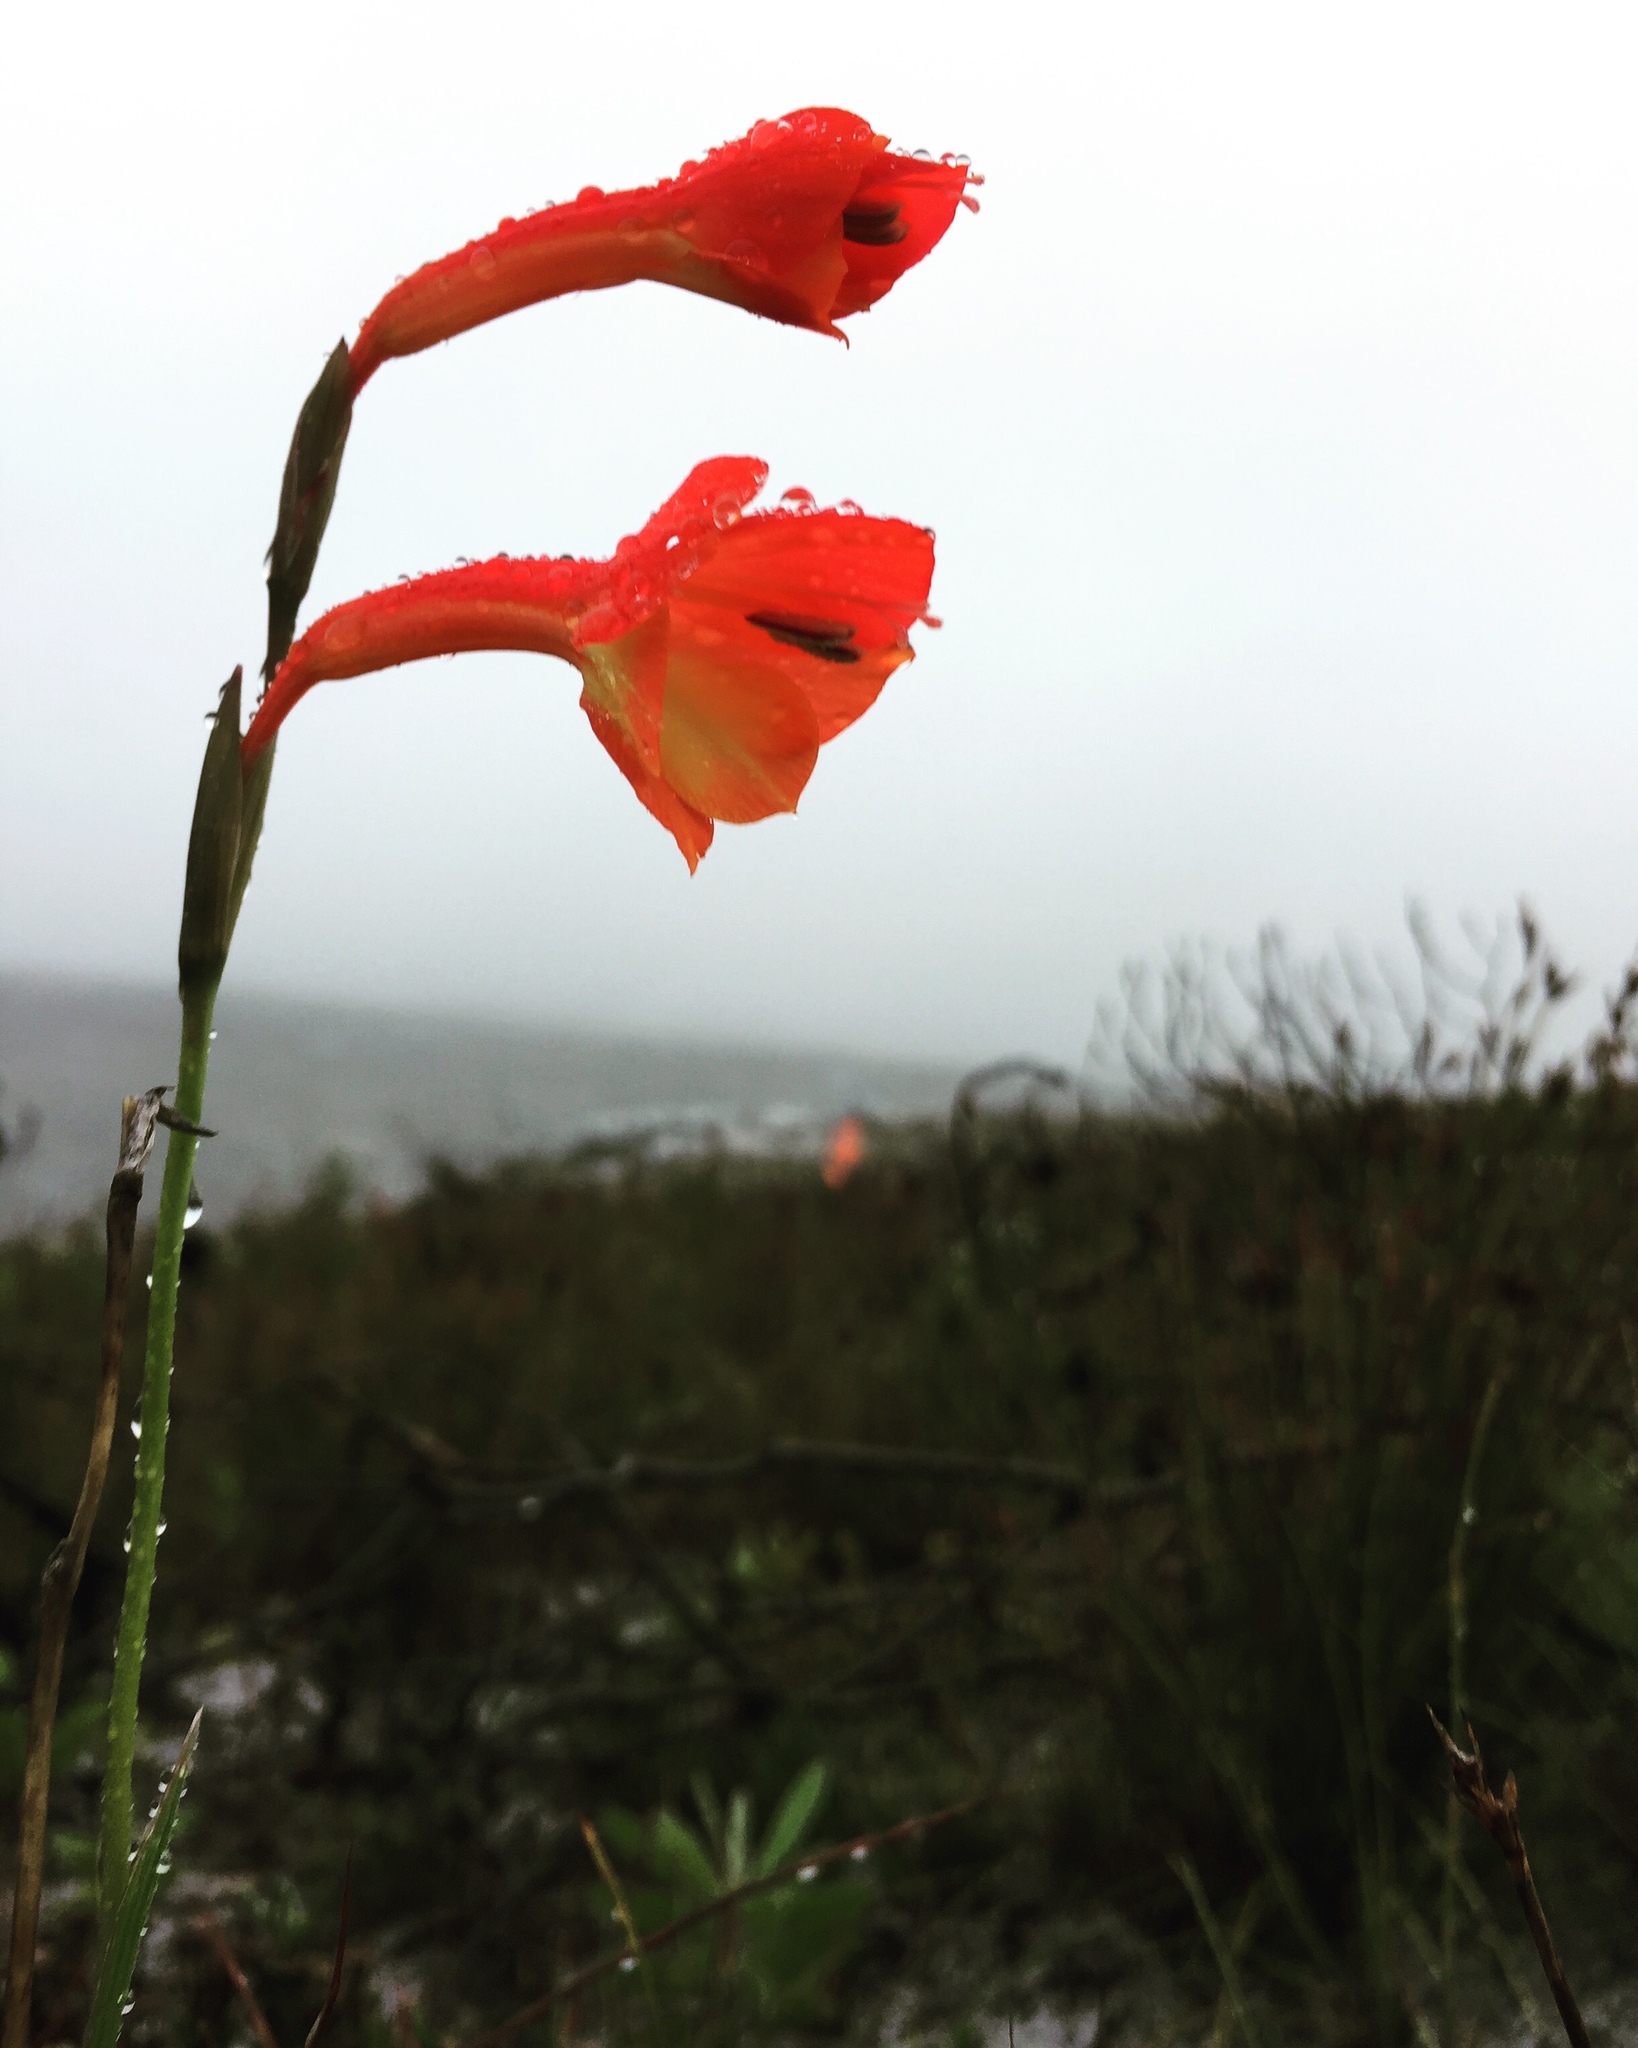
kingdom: Plantae
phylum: Tracheophyta
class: Liliopsida
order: Asparagales
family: Iridaceae
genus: Gladiolus
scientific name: Gladiolus merianellus
